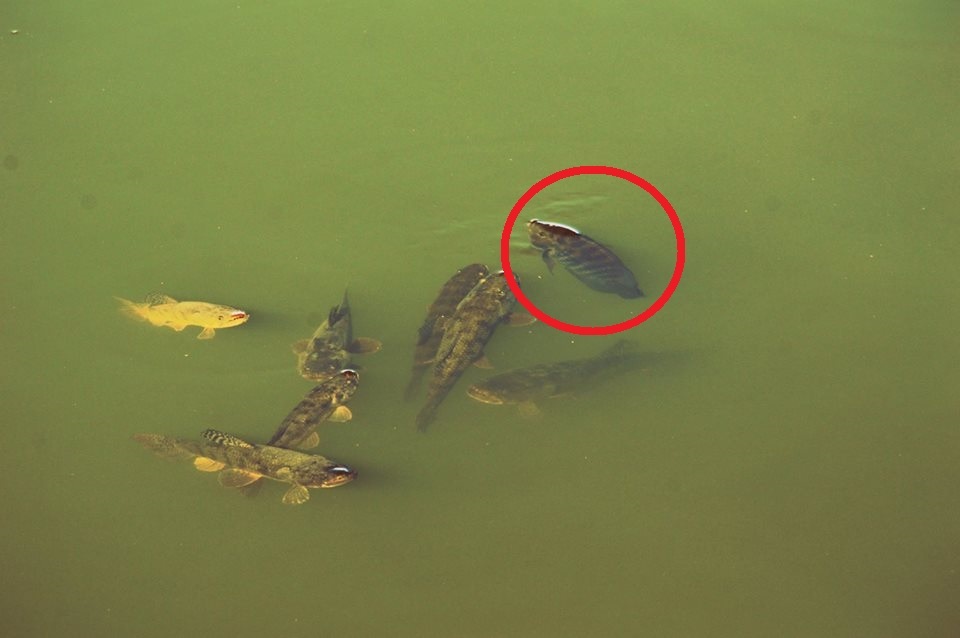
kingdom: Animalia
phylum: Chordata
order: Perciformes
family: Cichlidae
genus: Australoheros
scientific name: Australoheros facetus
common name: Chameleon cichlid
